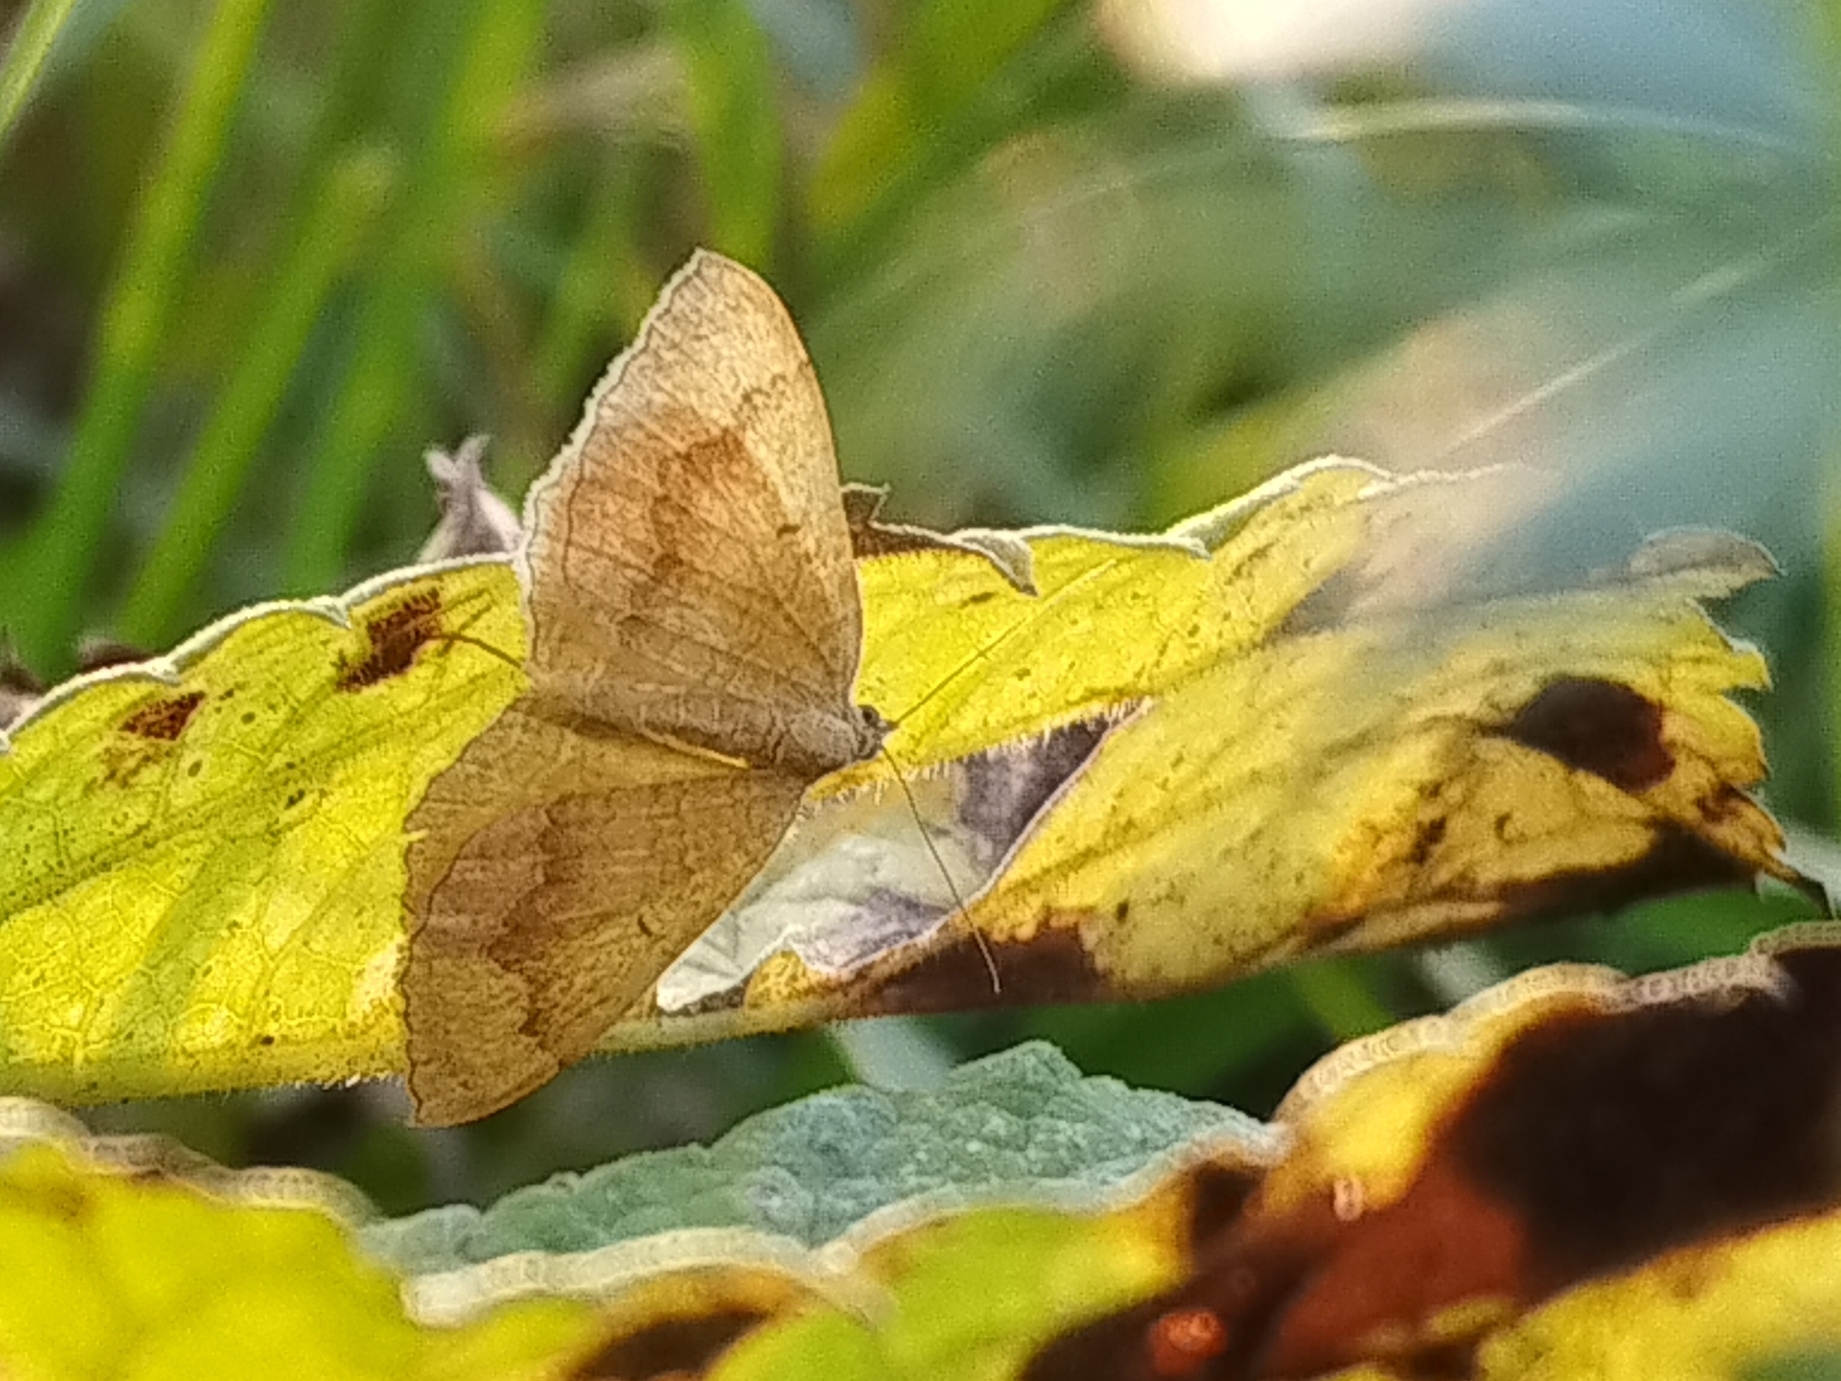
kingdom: Animalia
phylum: Arthropoda
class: Insecta
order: Lepidoptera
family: Geometridae
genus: Camptogramma
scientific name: Camptogramma bilineata
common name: Yellow shell
